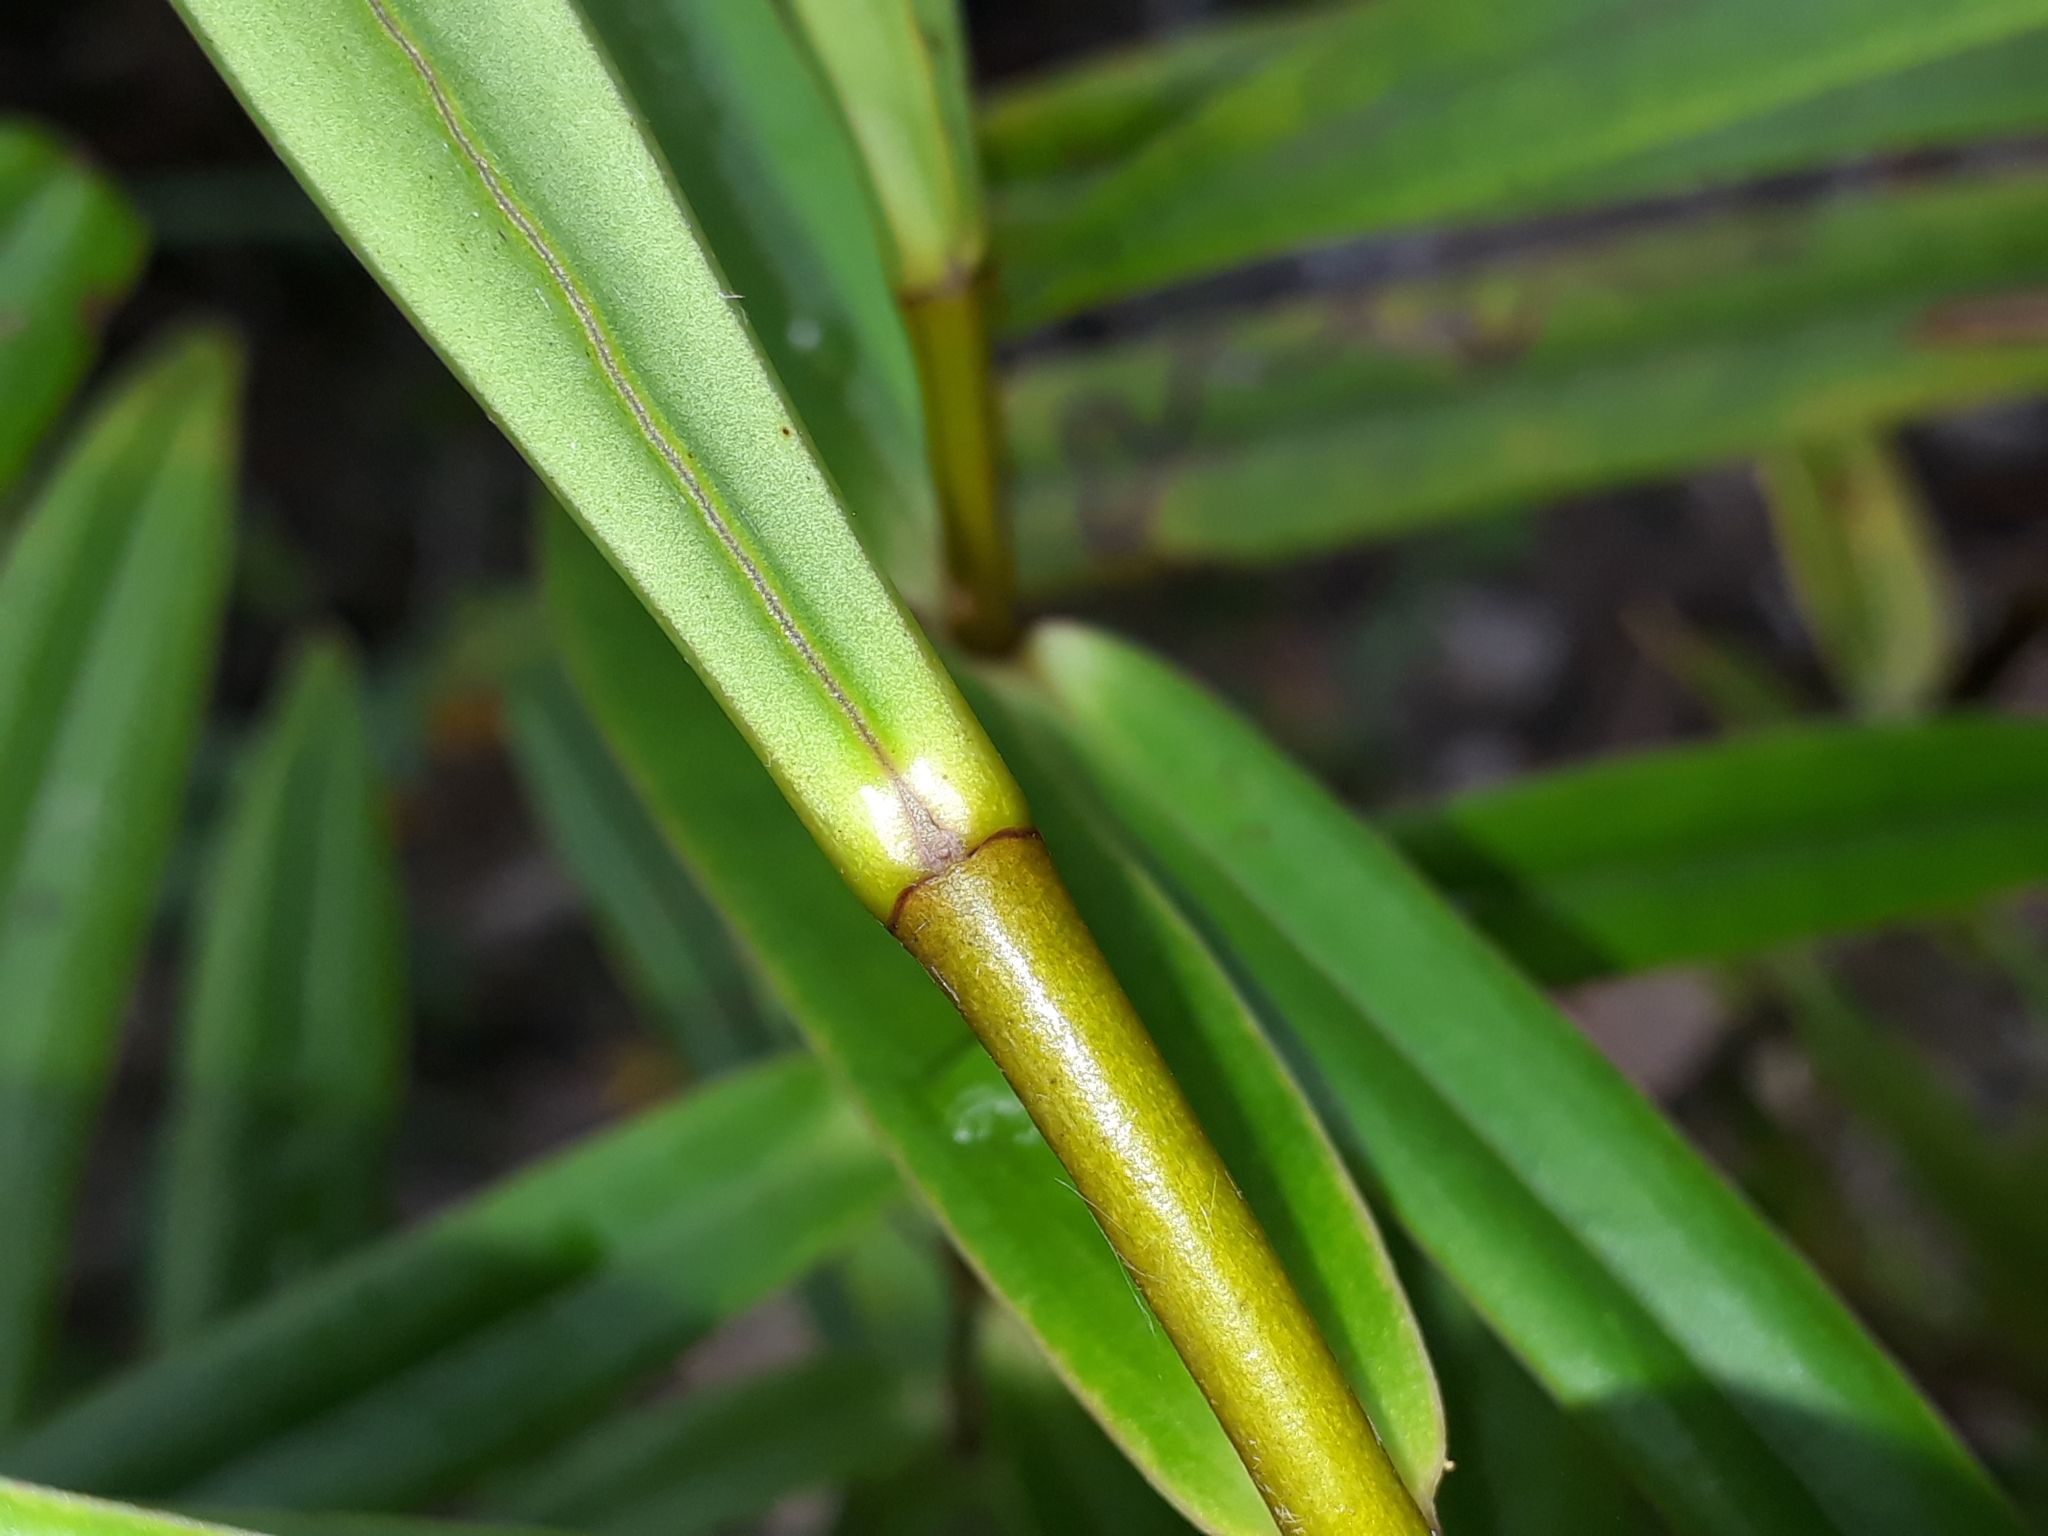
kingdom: Plantae
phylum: Tracheophyta
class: Magnoliopsida
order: Lamiales
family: Plantaginaceae
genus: Veronica
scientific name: Veronica macrocarpa
